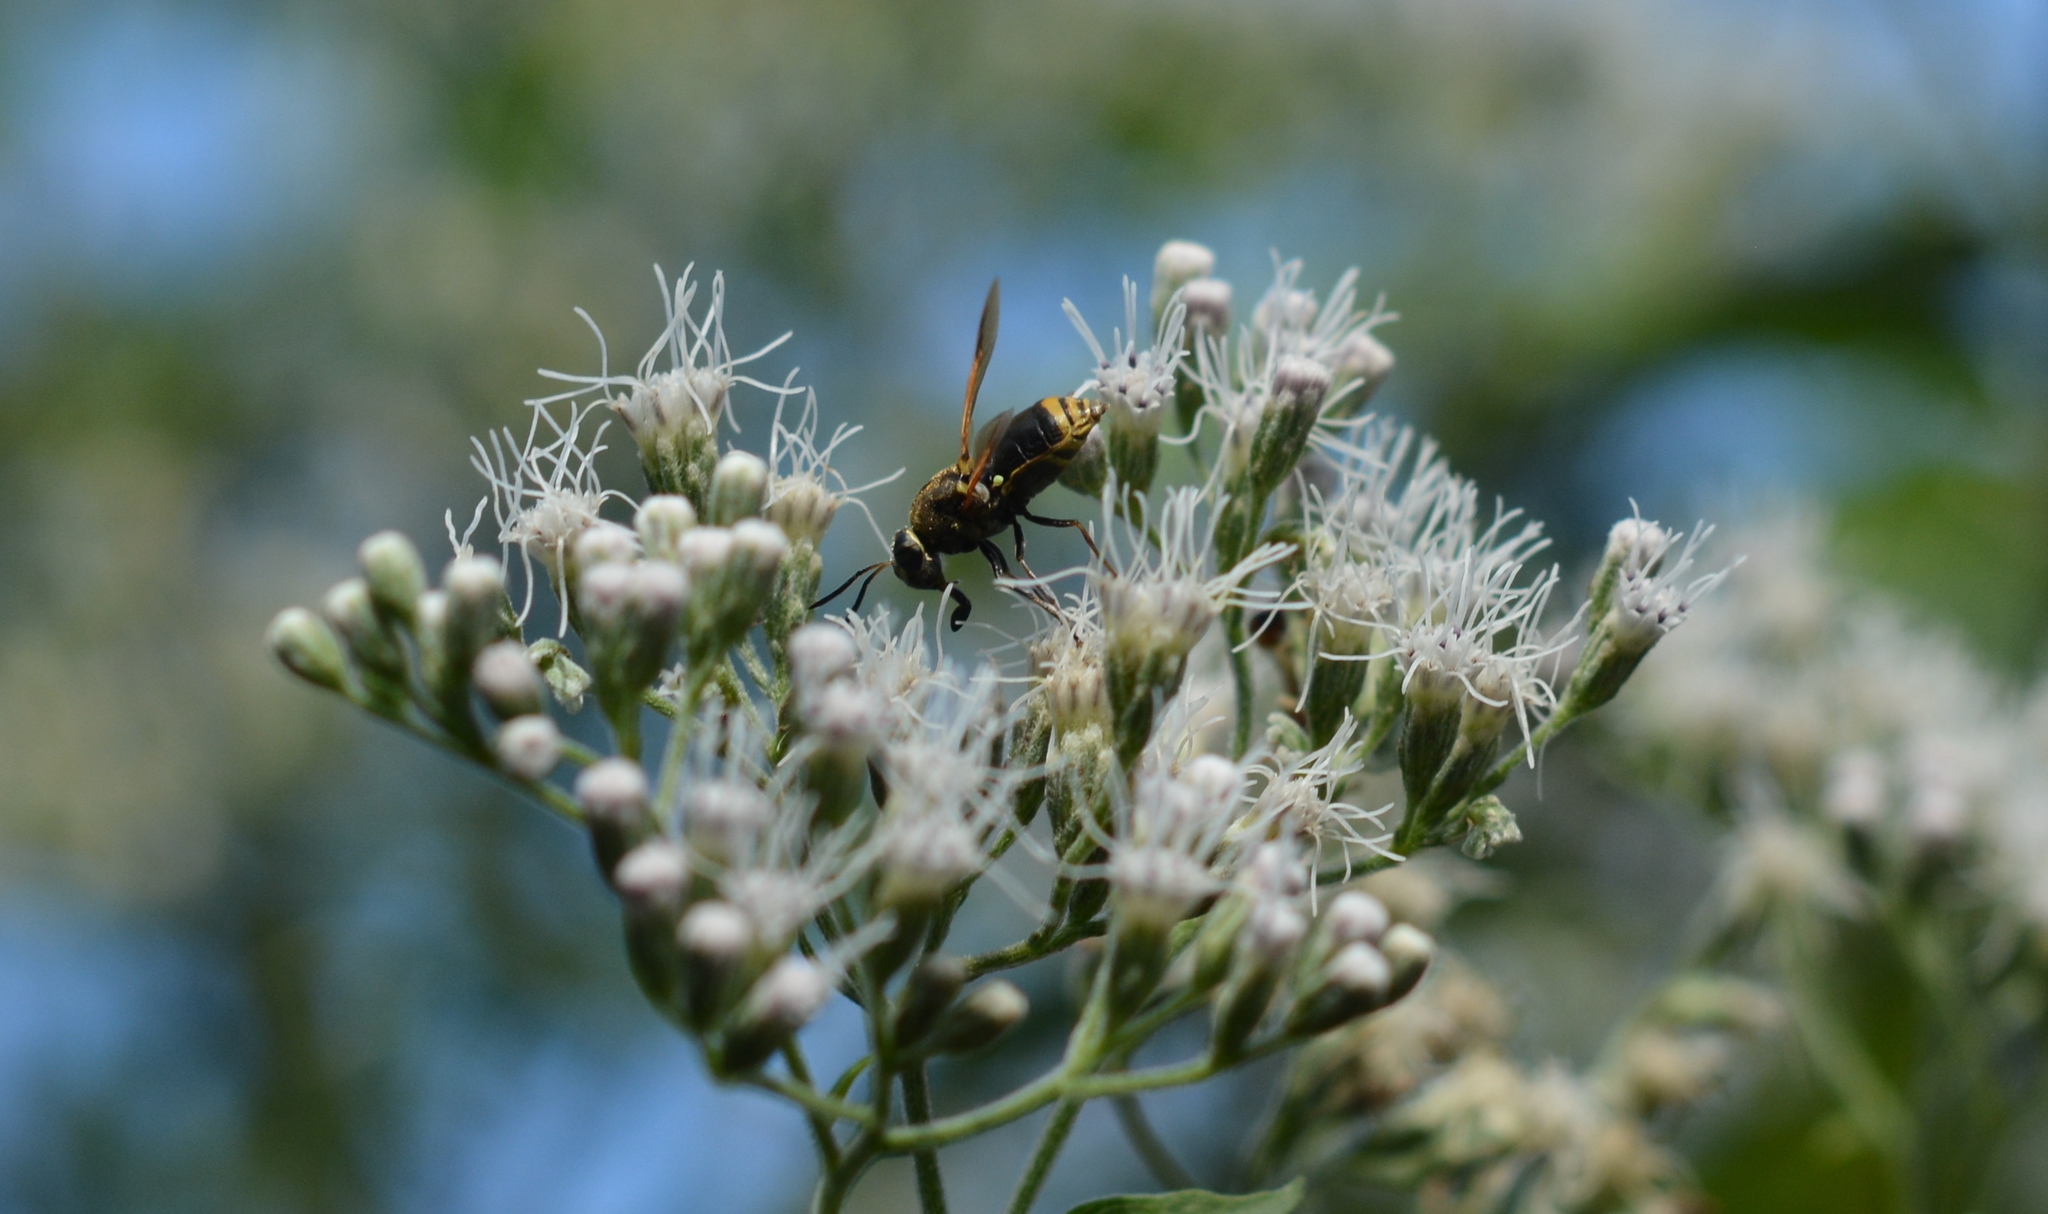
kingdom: Animalia
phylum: Arthropoda
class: Insecta
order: Diptera
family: Stratiomyidae
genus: Hoplitimyia
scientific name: Hoplitimyia mutabilis
